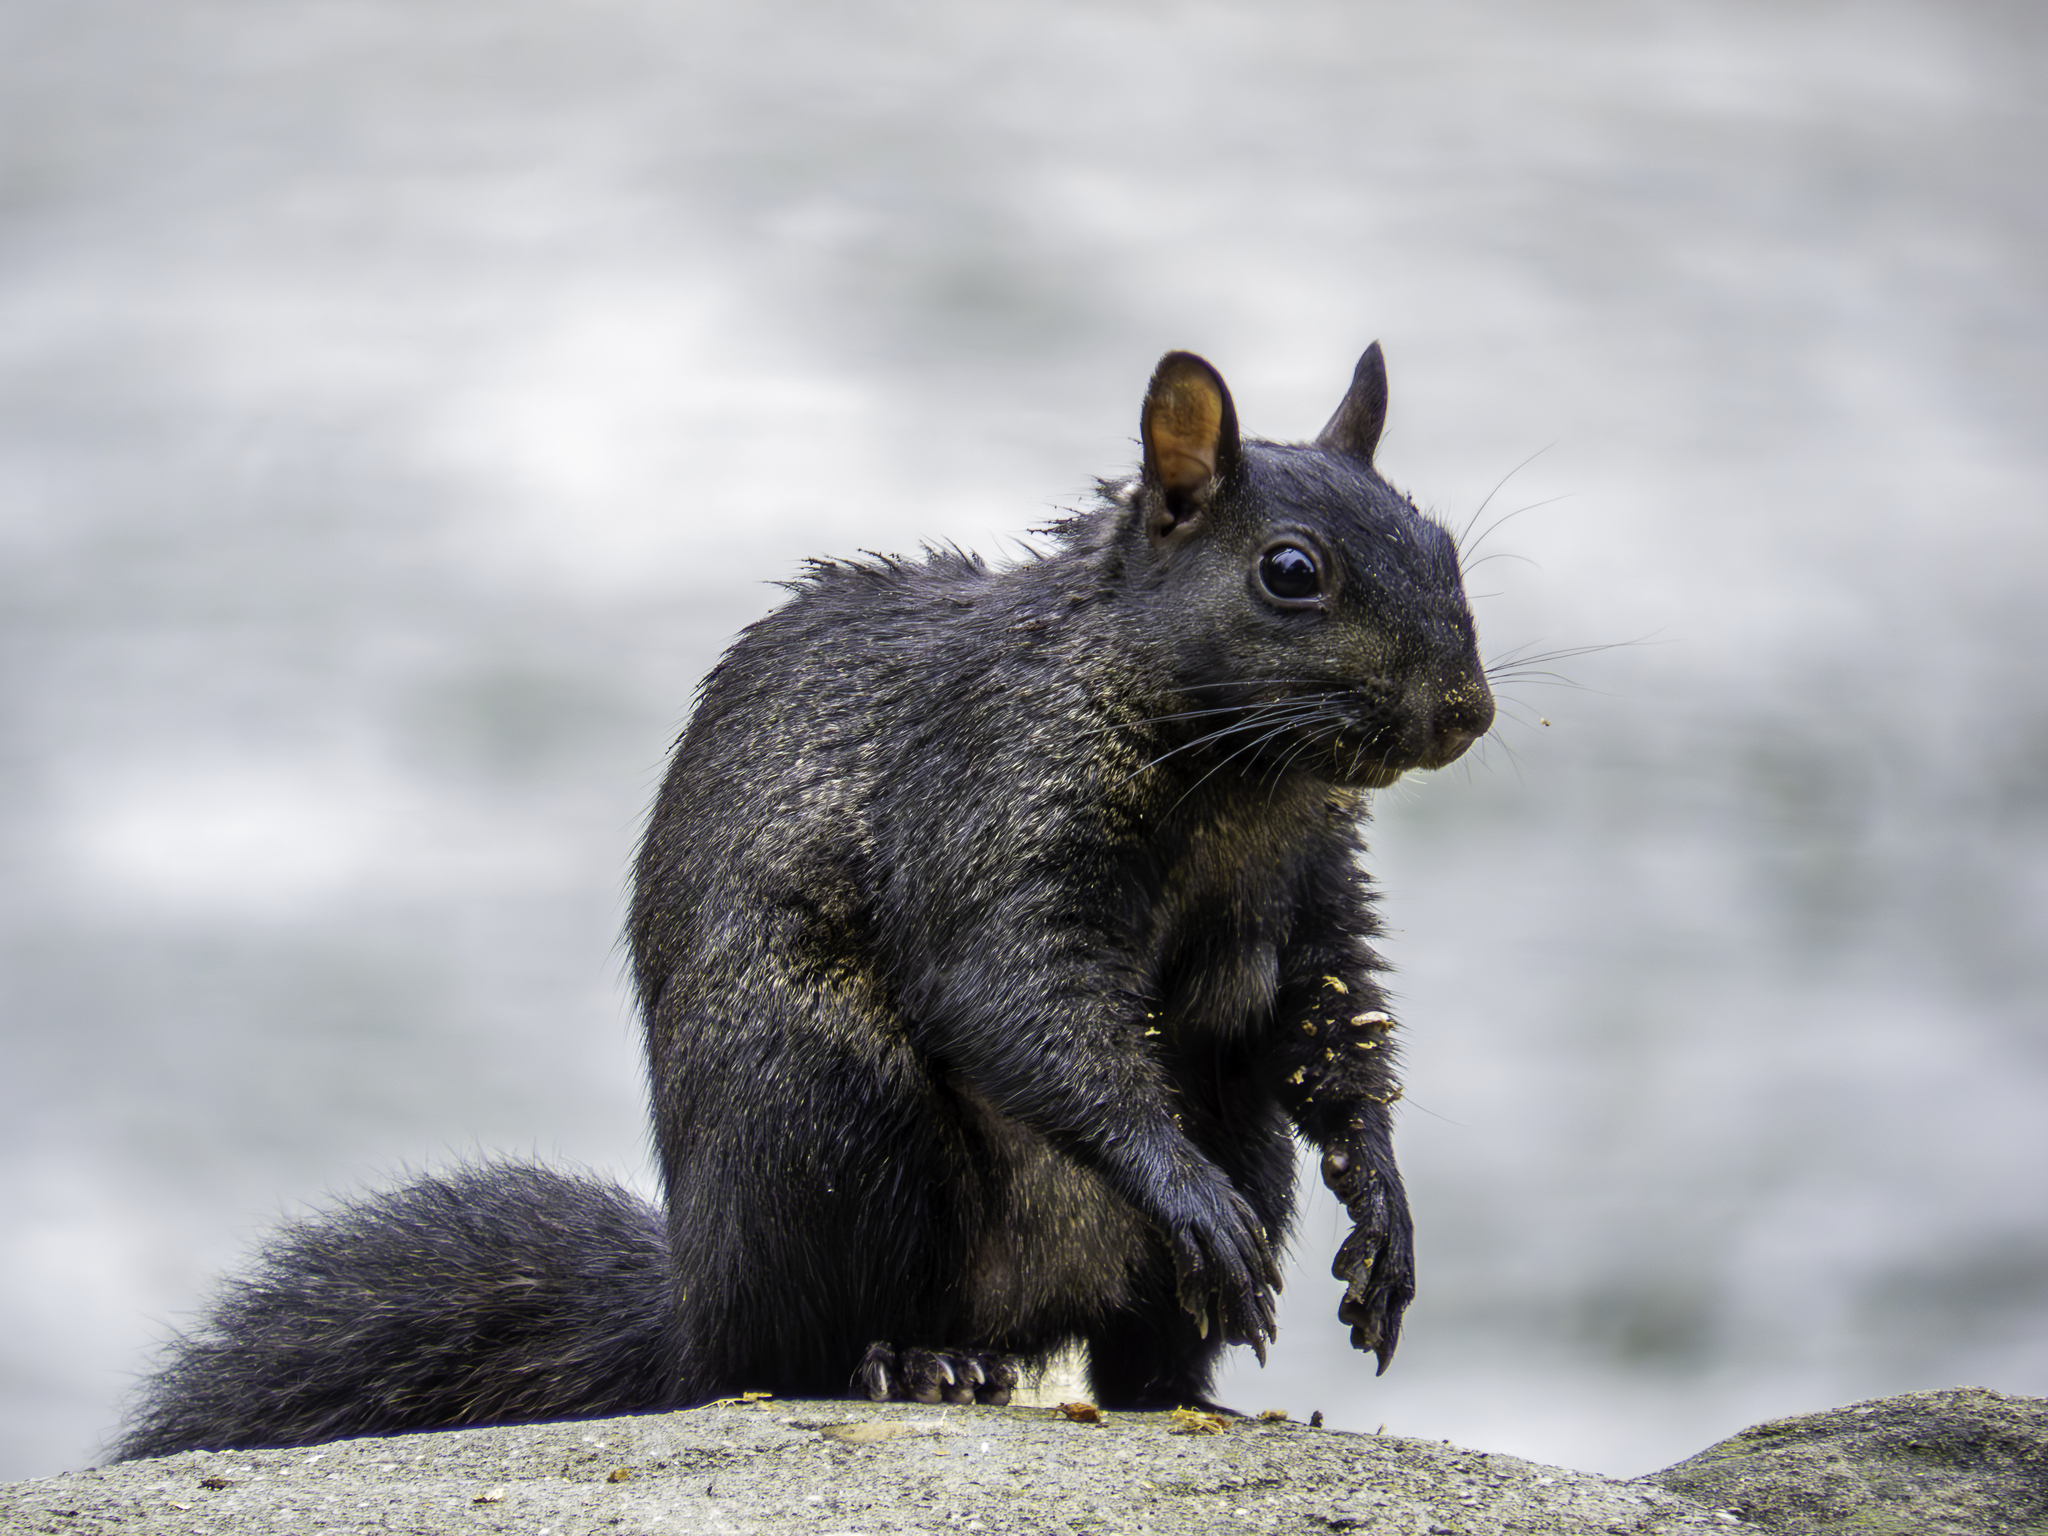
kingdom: Animalia
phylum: Chordata
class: Mammalia
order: Rodentia
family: Sciuridae
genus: Sciurus
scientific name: Sciurus carolinensis
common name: Eastern gray squirrel
